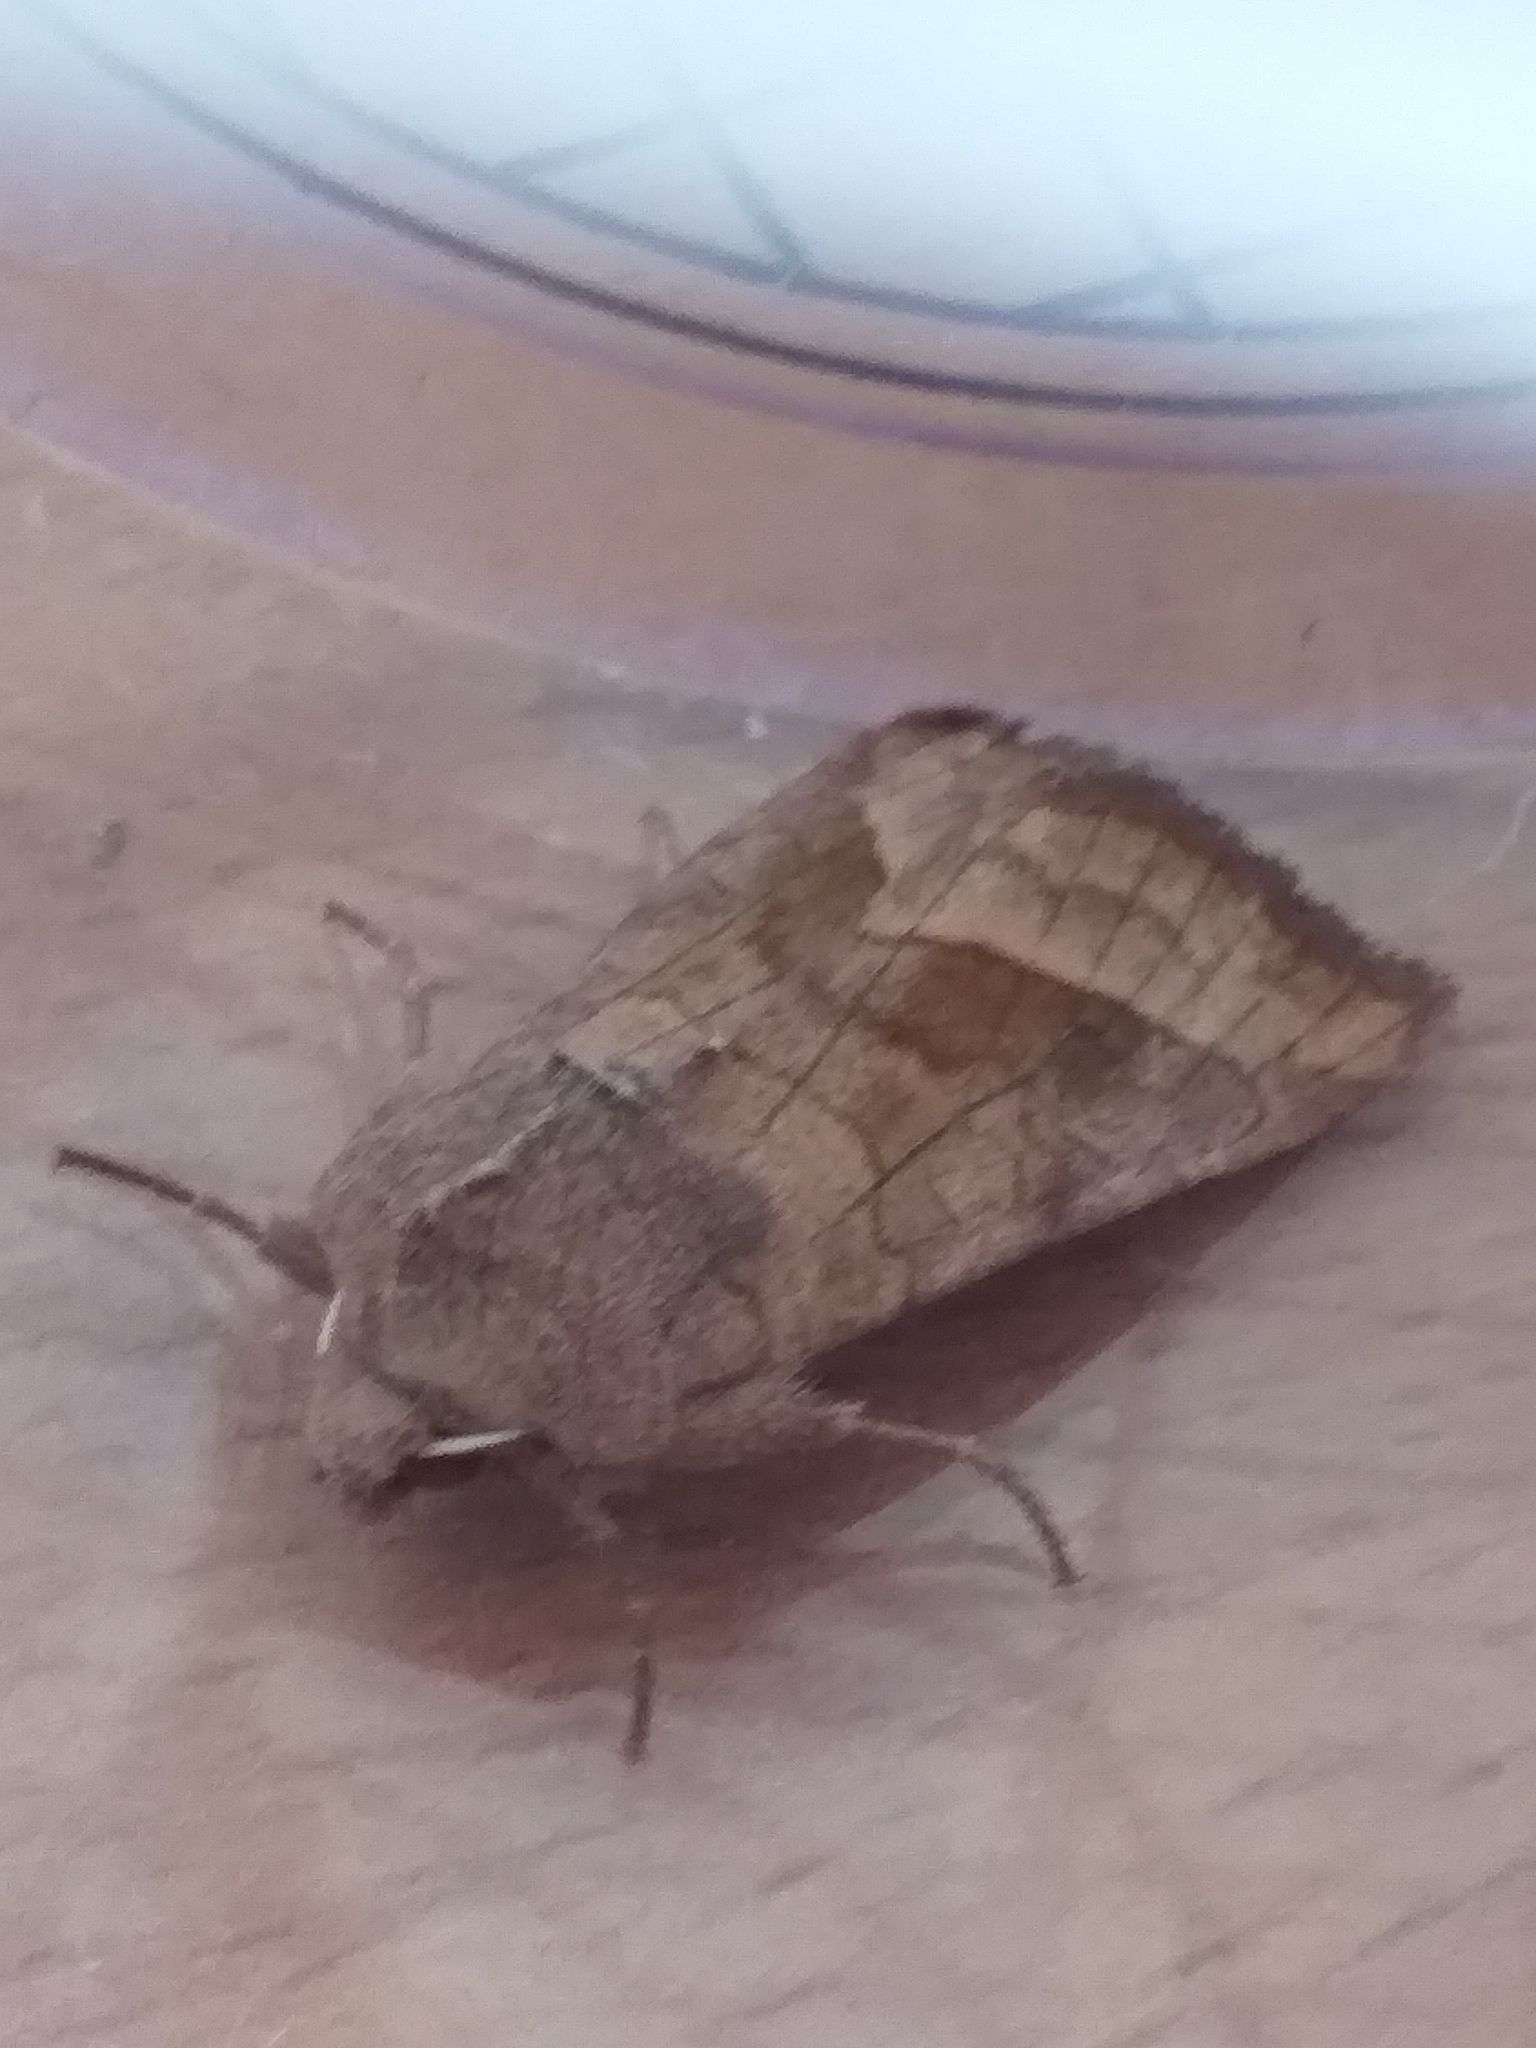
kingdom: Animalia
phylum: Arthropoda
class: Insecta
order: Lepidoptera
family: Noctuidae
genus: Hydraecia
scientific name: Hydraecia micacea
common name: Rosy rustic
